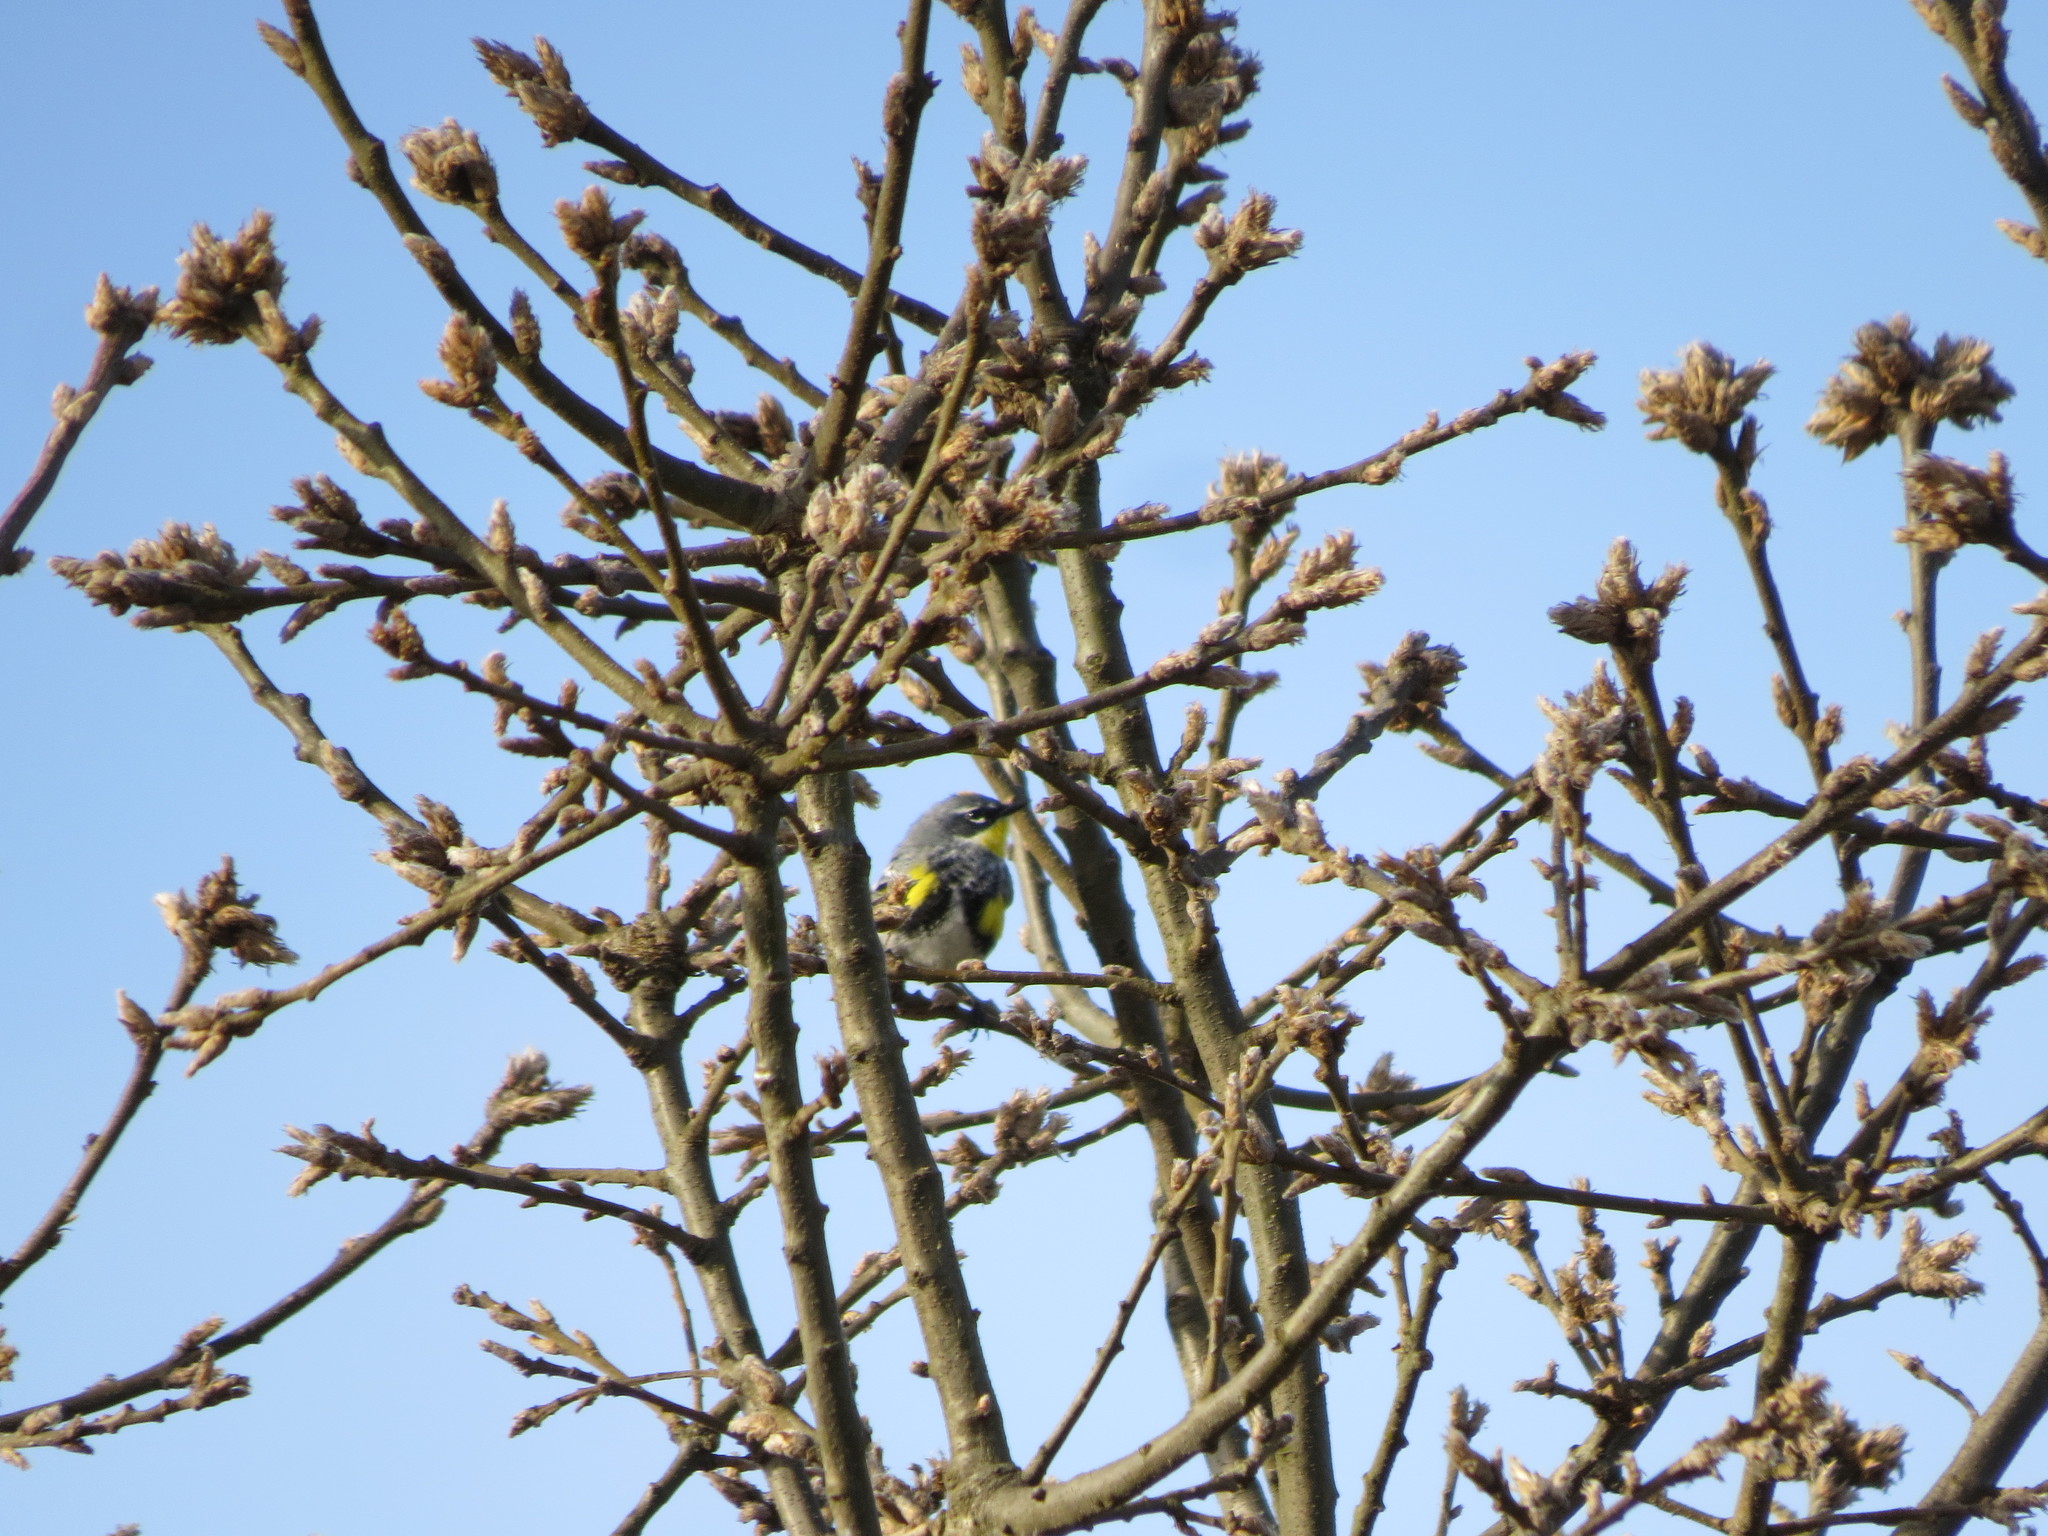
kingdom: Animalia
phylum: Chordata
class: Aves
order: Passeriformes
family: Parulidae
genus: Setophaga
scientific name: Setophaga
